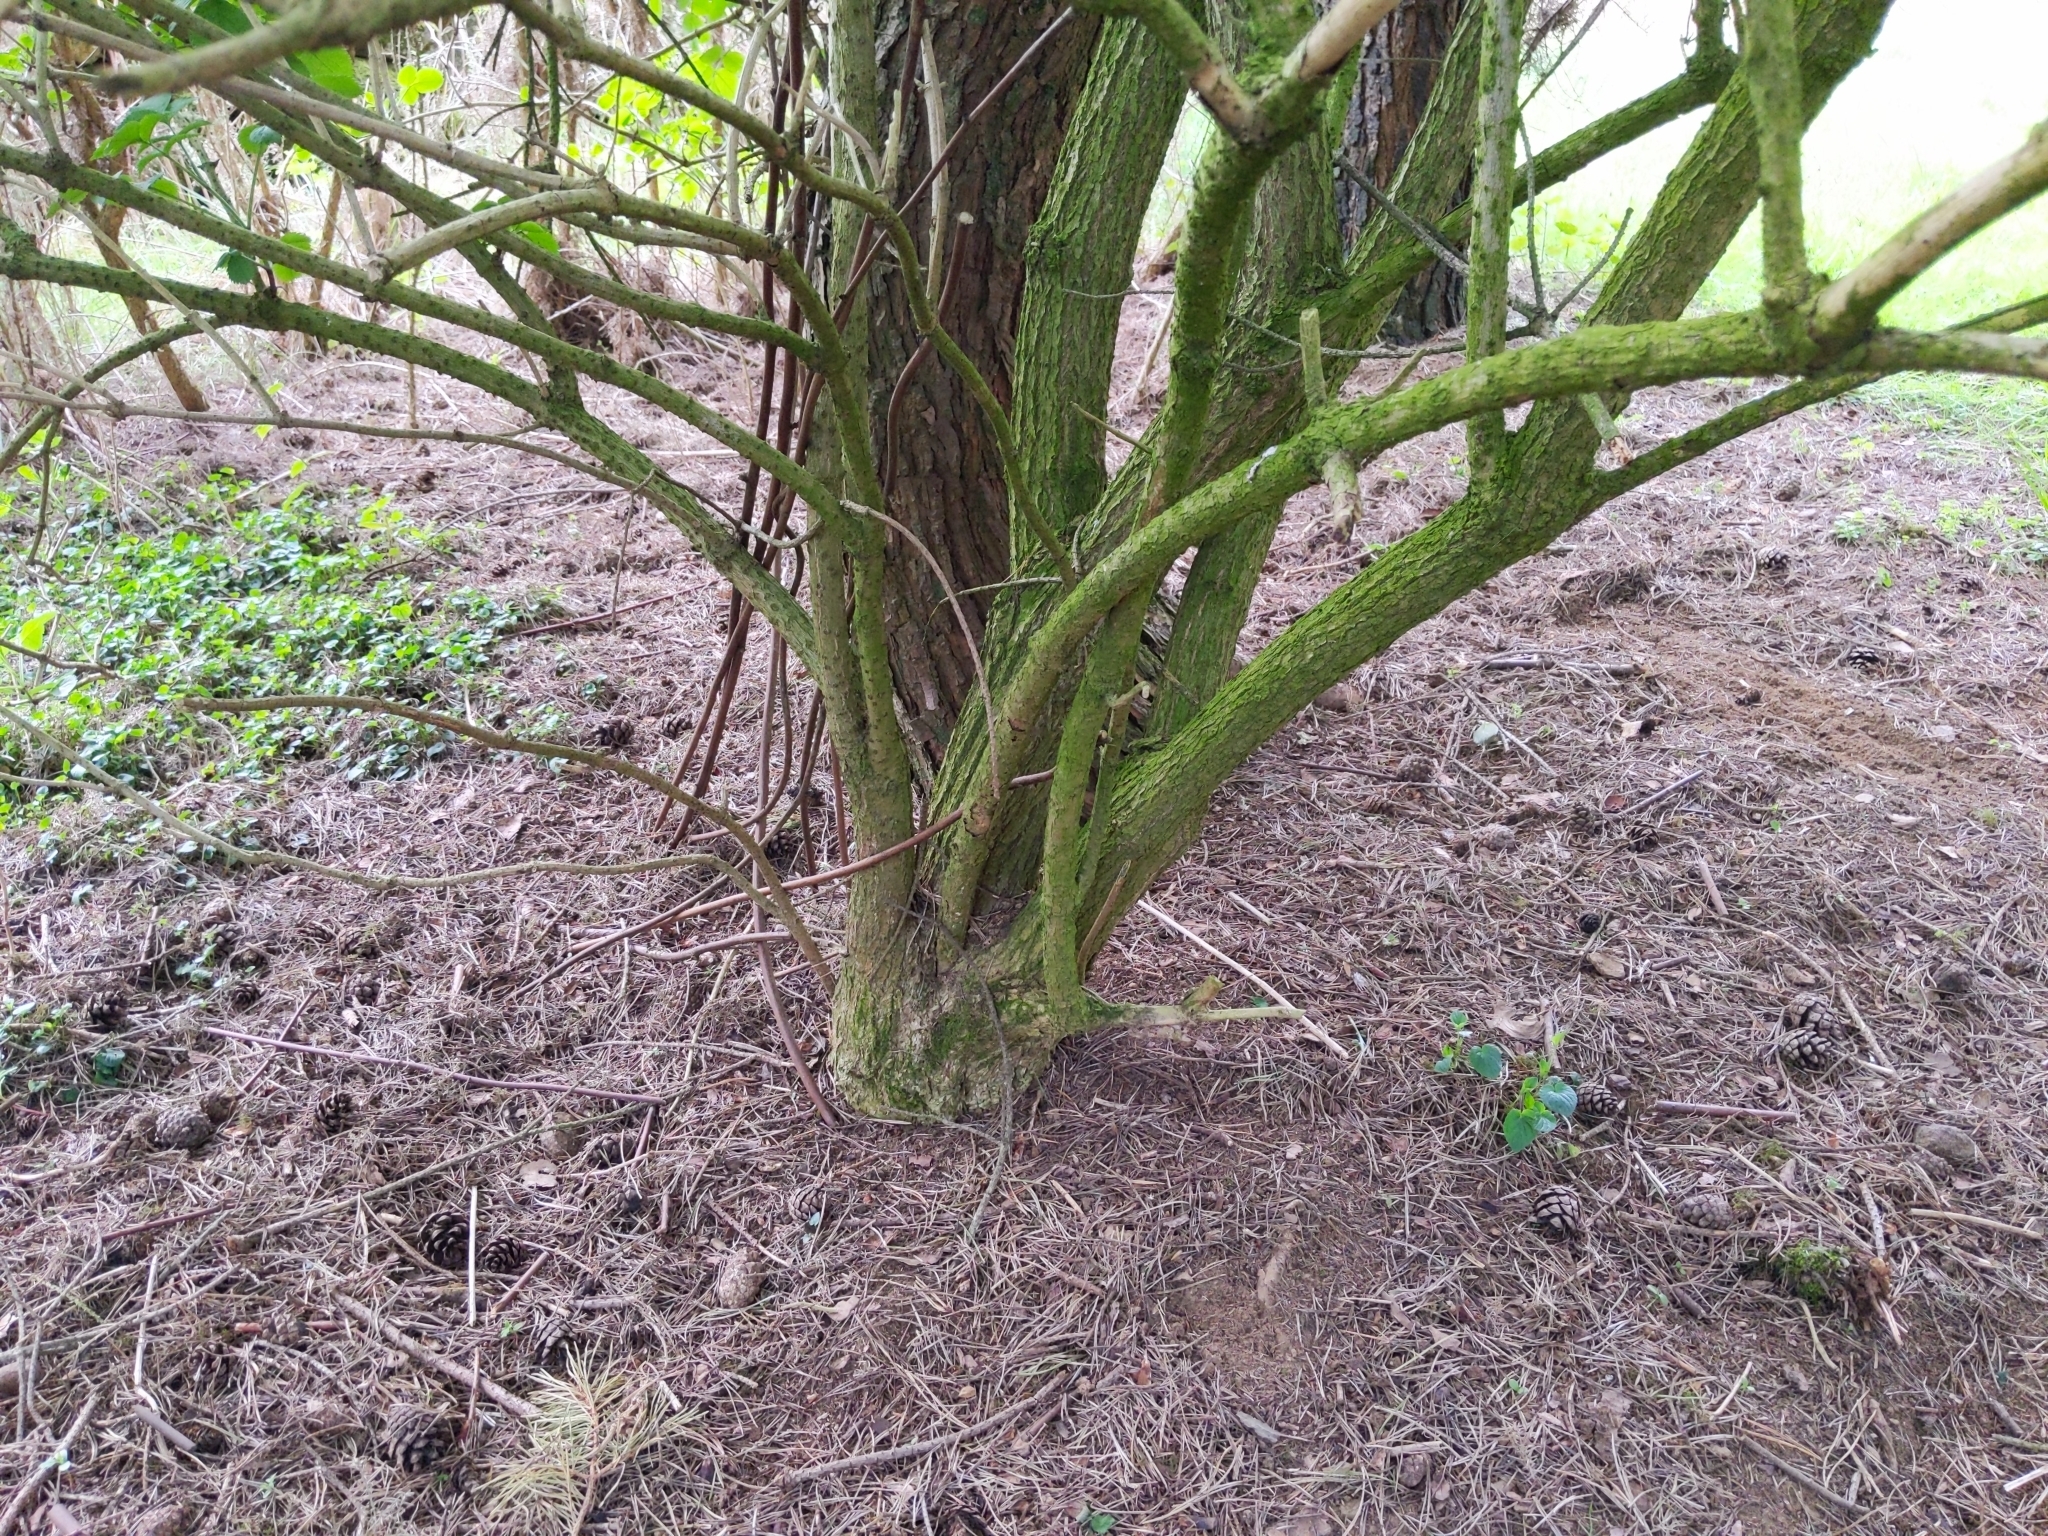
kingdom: Plantae
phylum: Tracheophyta
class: Magnoliopsida
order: Dipsacales
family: Viburnaceae
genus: Sambucus
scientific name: Sambucus nigra
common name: Elder
